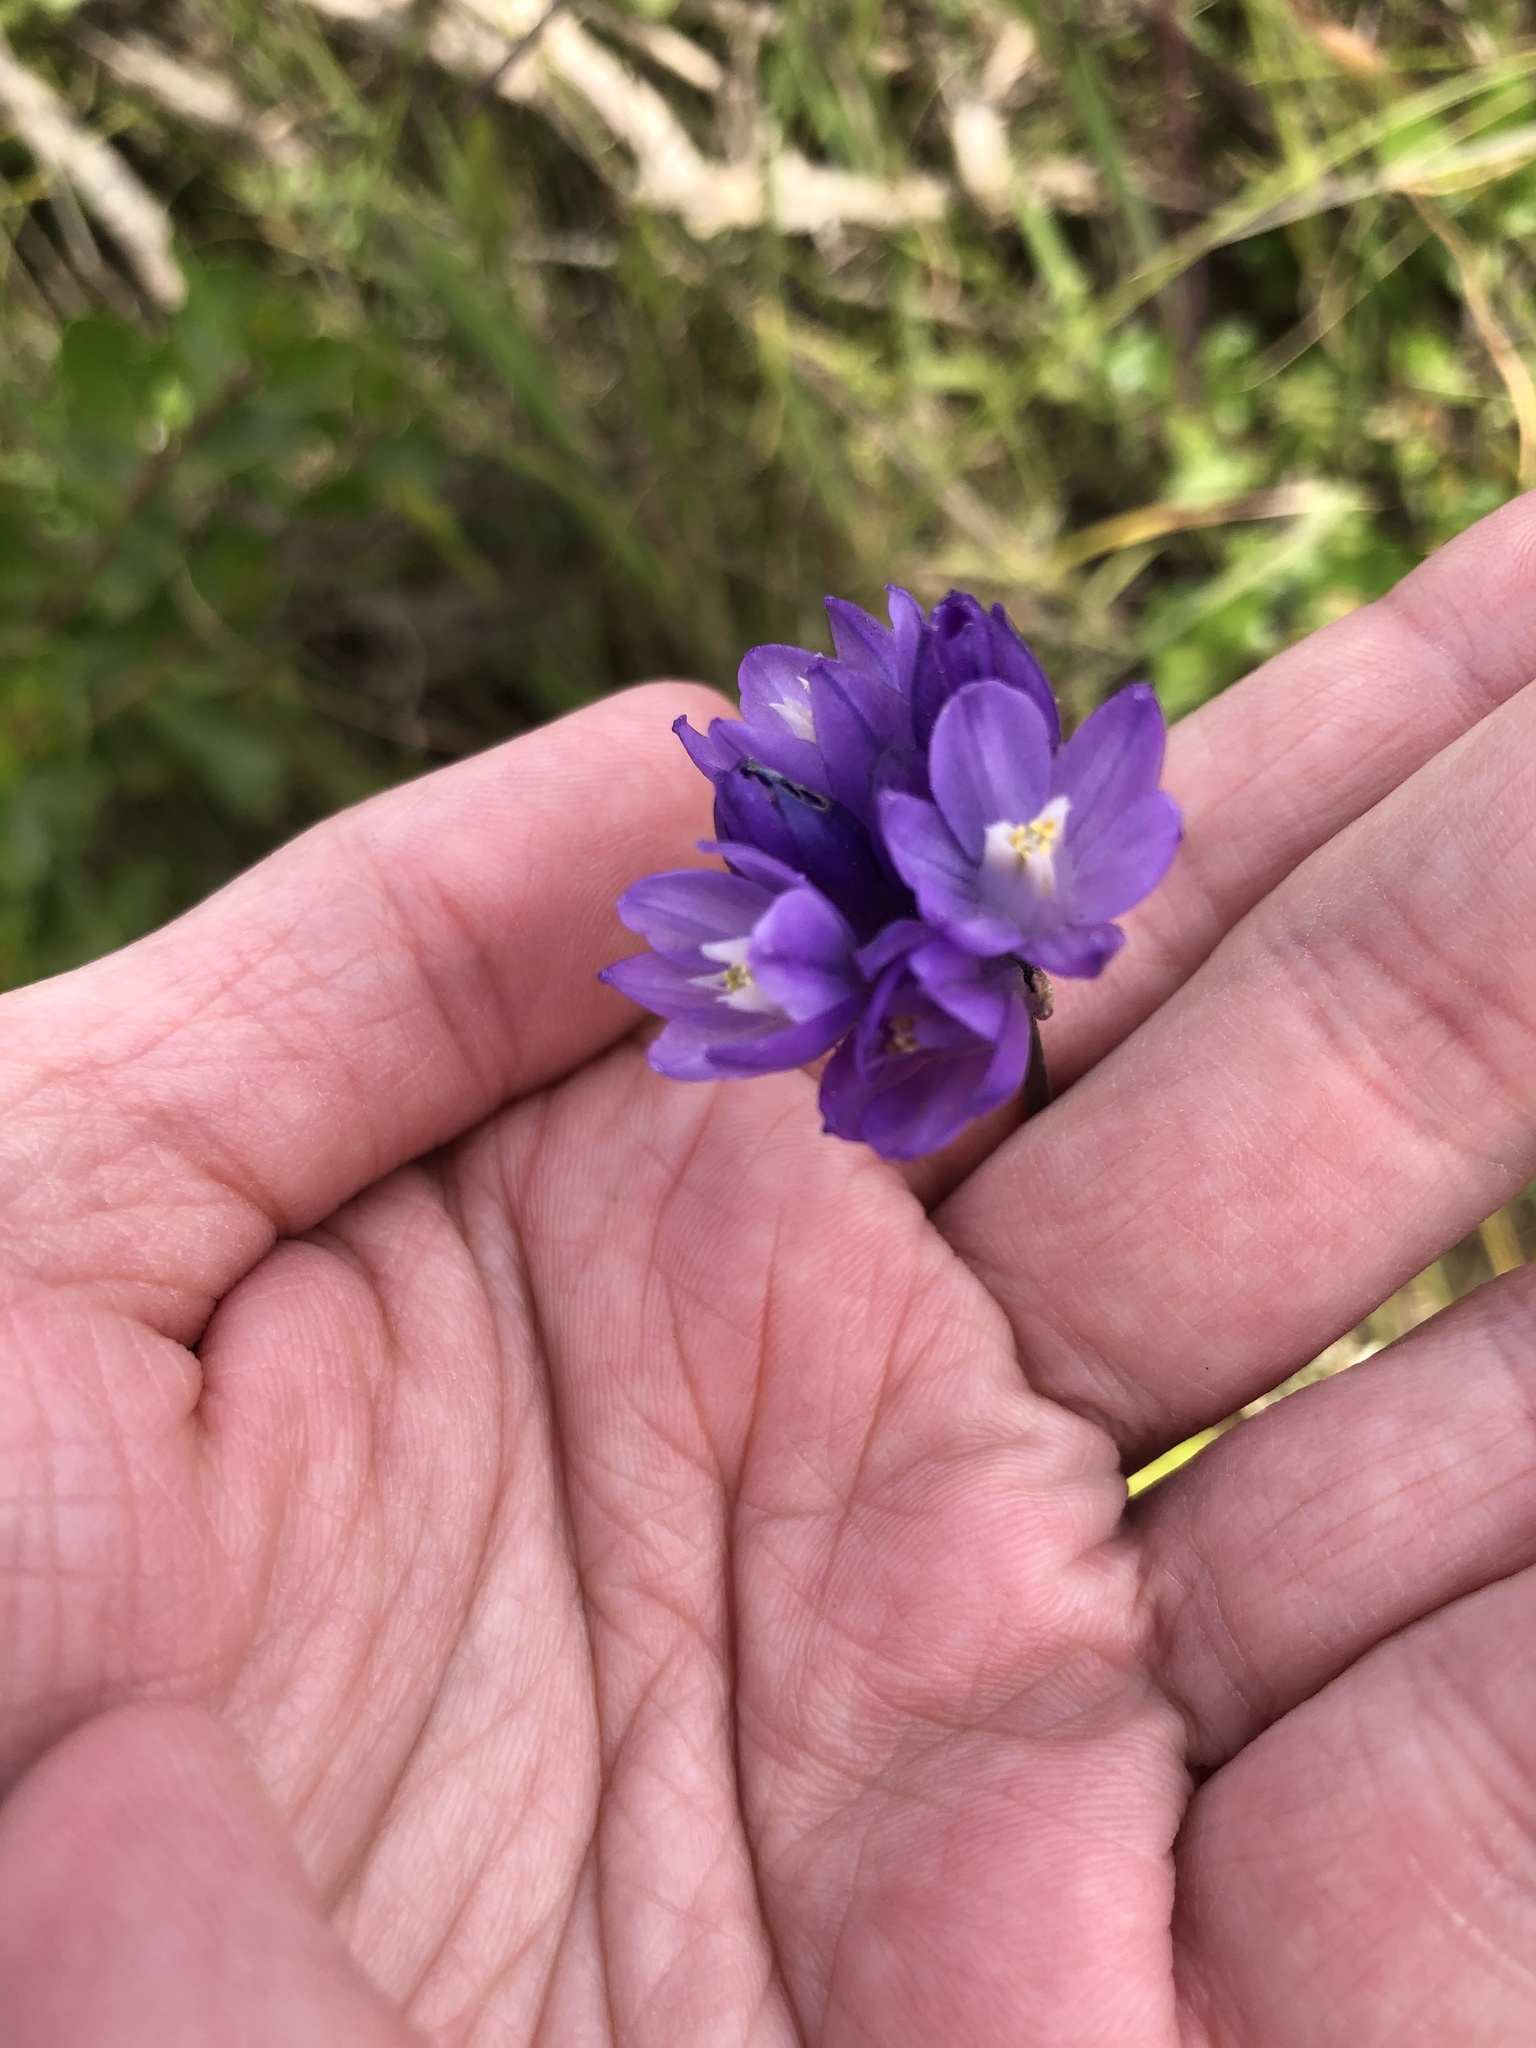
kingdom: Plantae
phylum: Tracheophyta
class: Liliopsida
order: Asparagales
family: Asparagaceae
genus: Dipterostemon
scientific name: Dipterostemon capitatus
